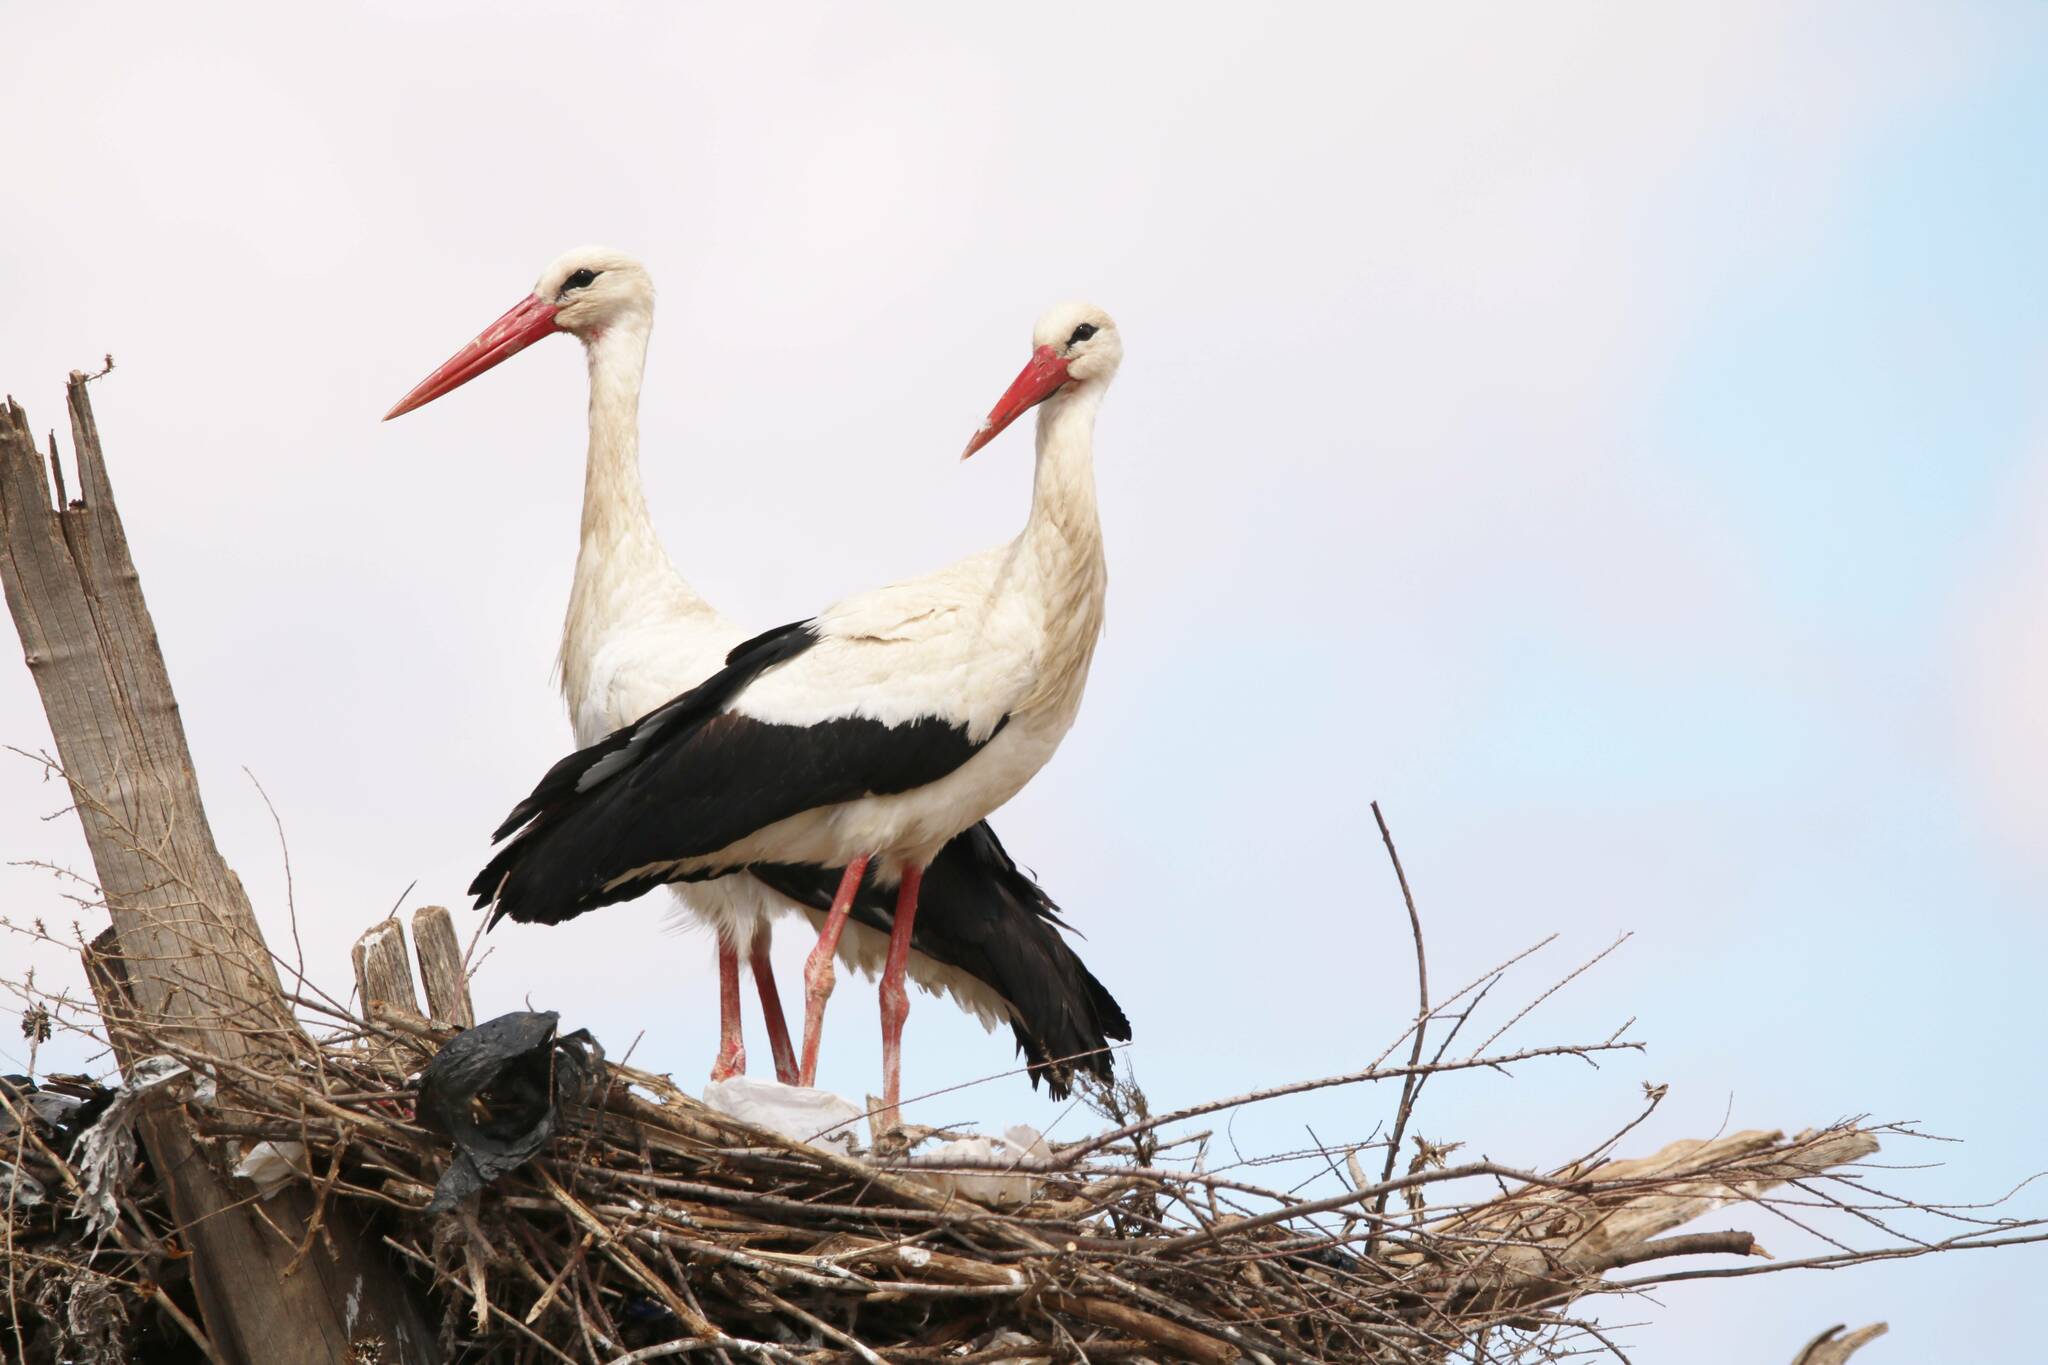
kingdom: Animalia
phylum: Chordata
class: Aves
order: Ciconiiformes
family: Ciconiidae
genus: Ciconia
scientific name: Ciconia ciconia
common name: White stork
